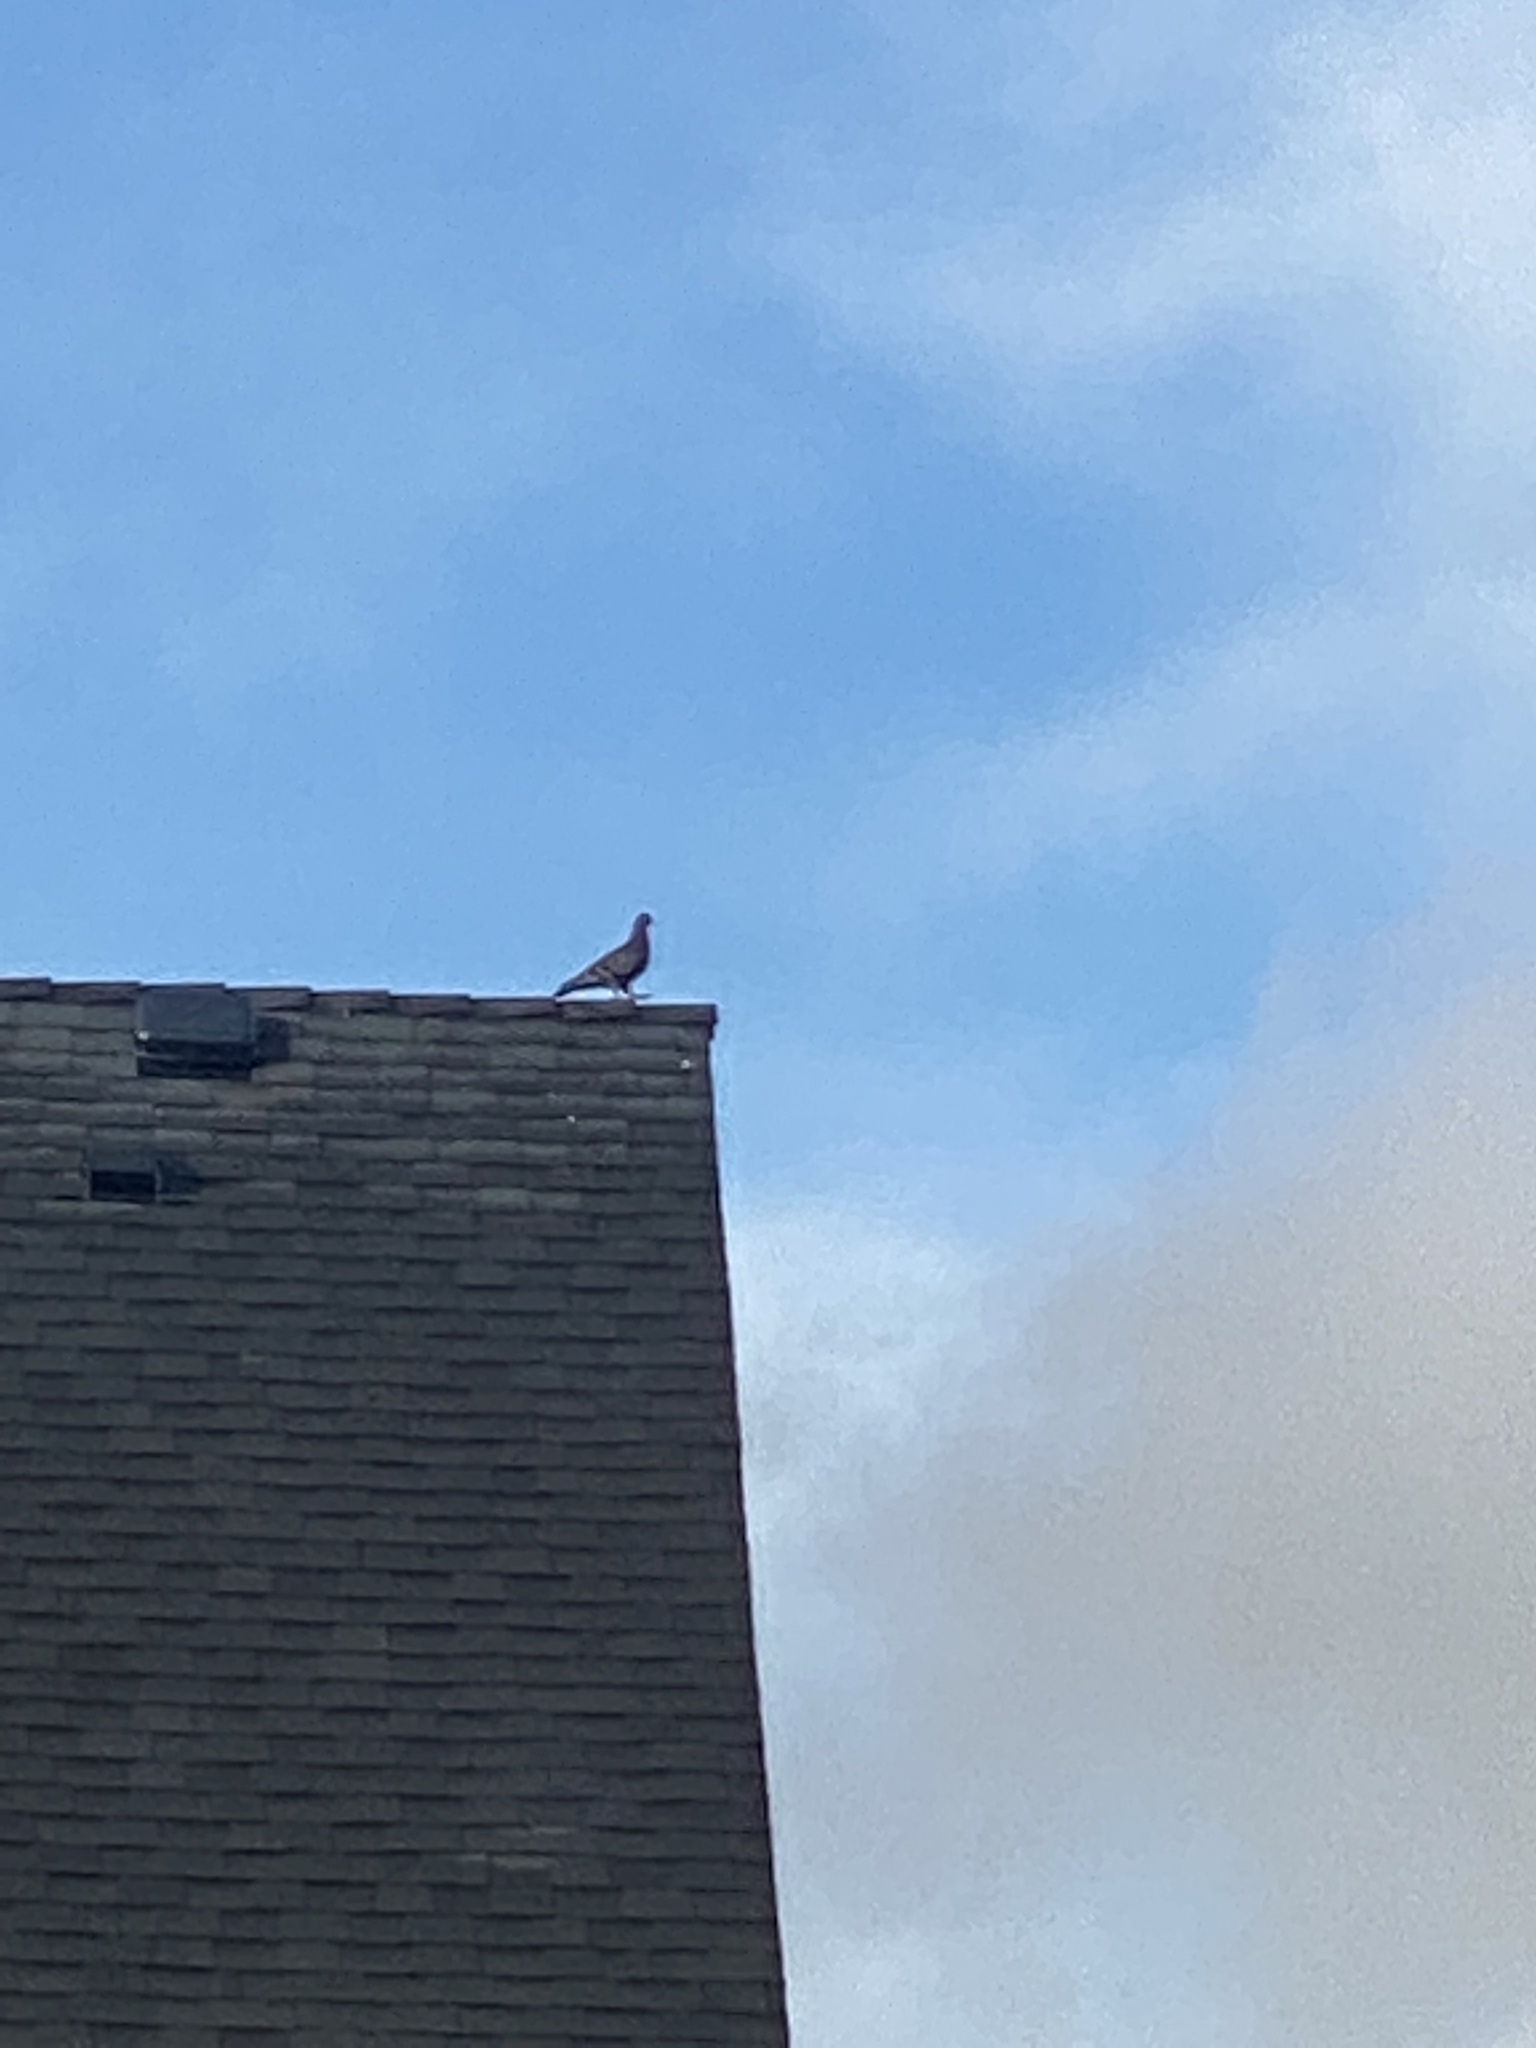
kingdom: Animalia
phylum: Chordata
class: Aves
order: Columbiformes
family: Columbidae
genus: Columba
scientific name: Columba livia
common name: Rock pigeon
